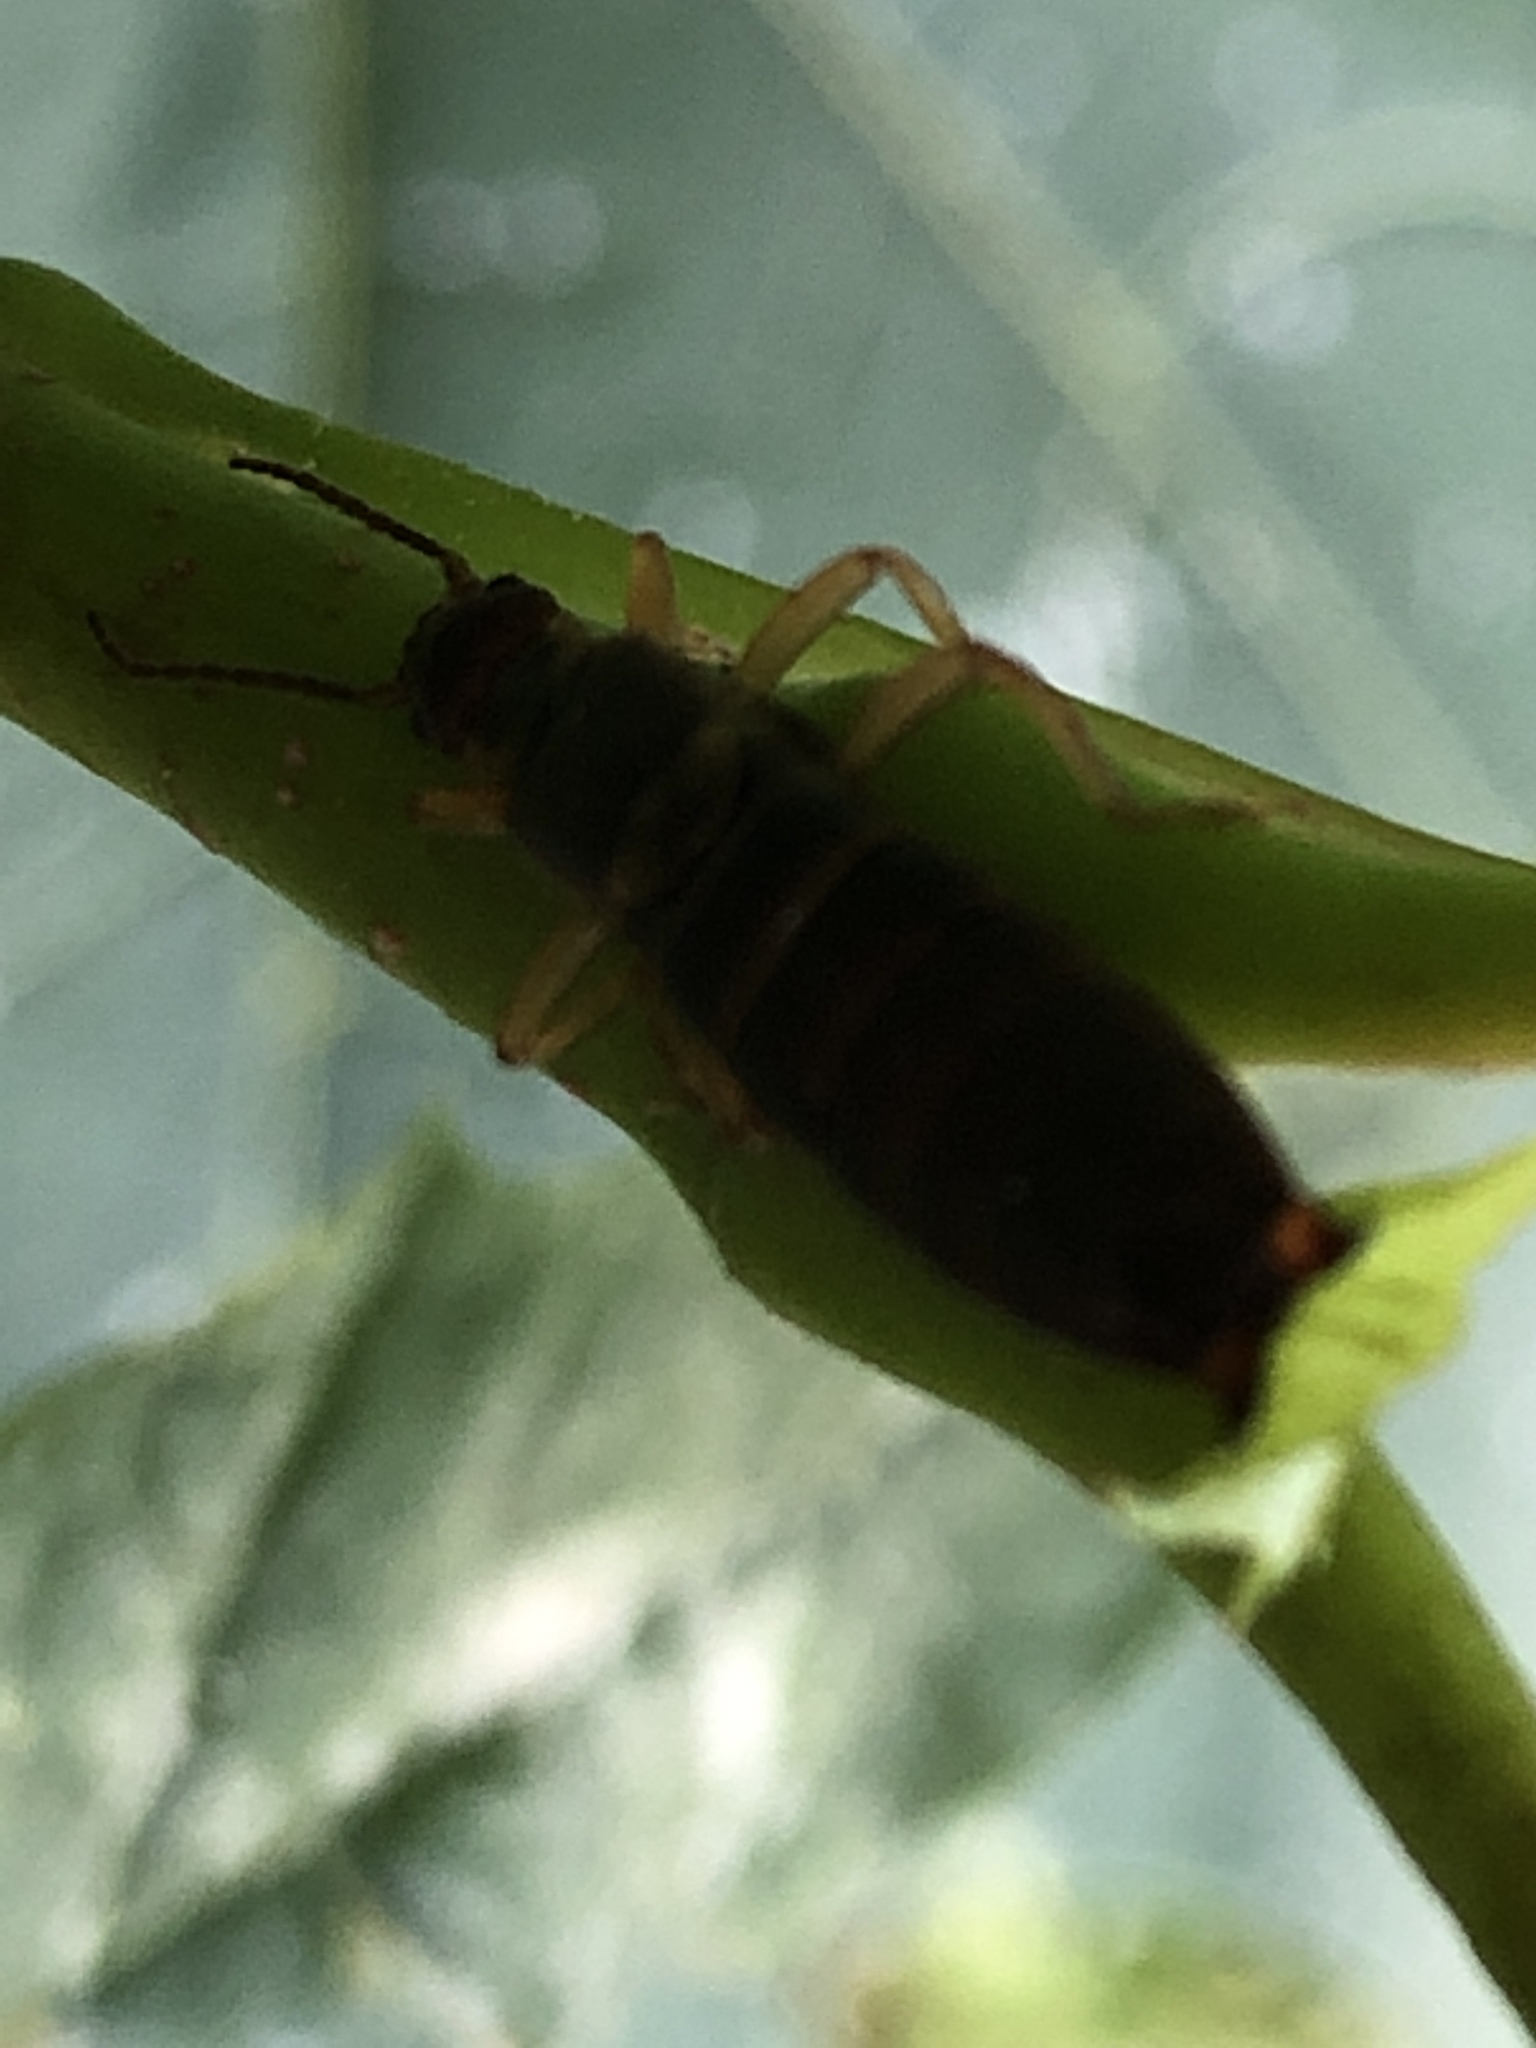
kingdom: Animalia
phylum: Arthropoda
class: Insecta
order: Dermaptera
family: Forficulidae
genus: Forficula
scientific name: Forficula
